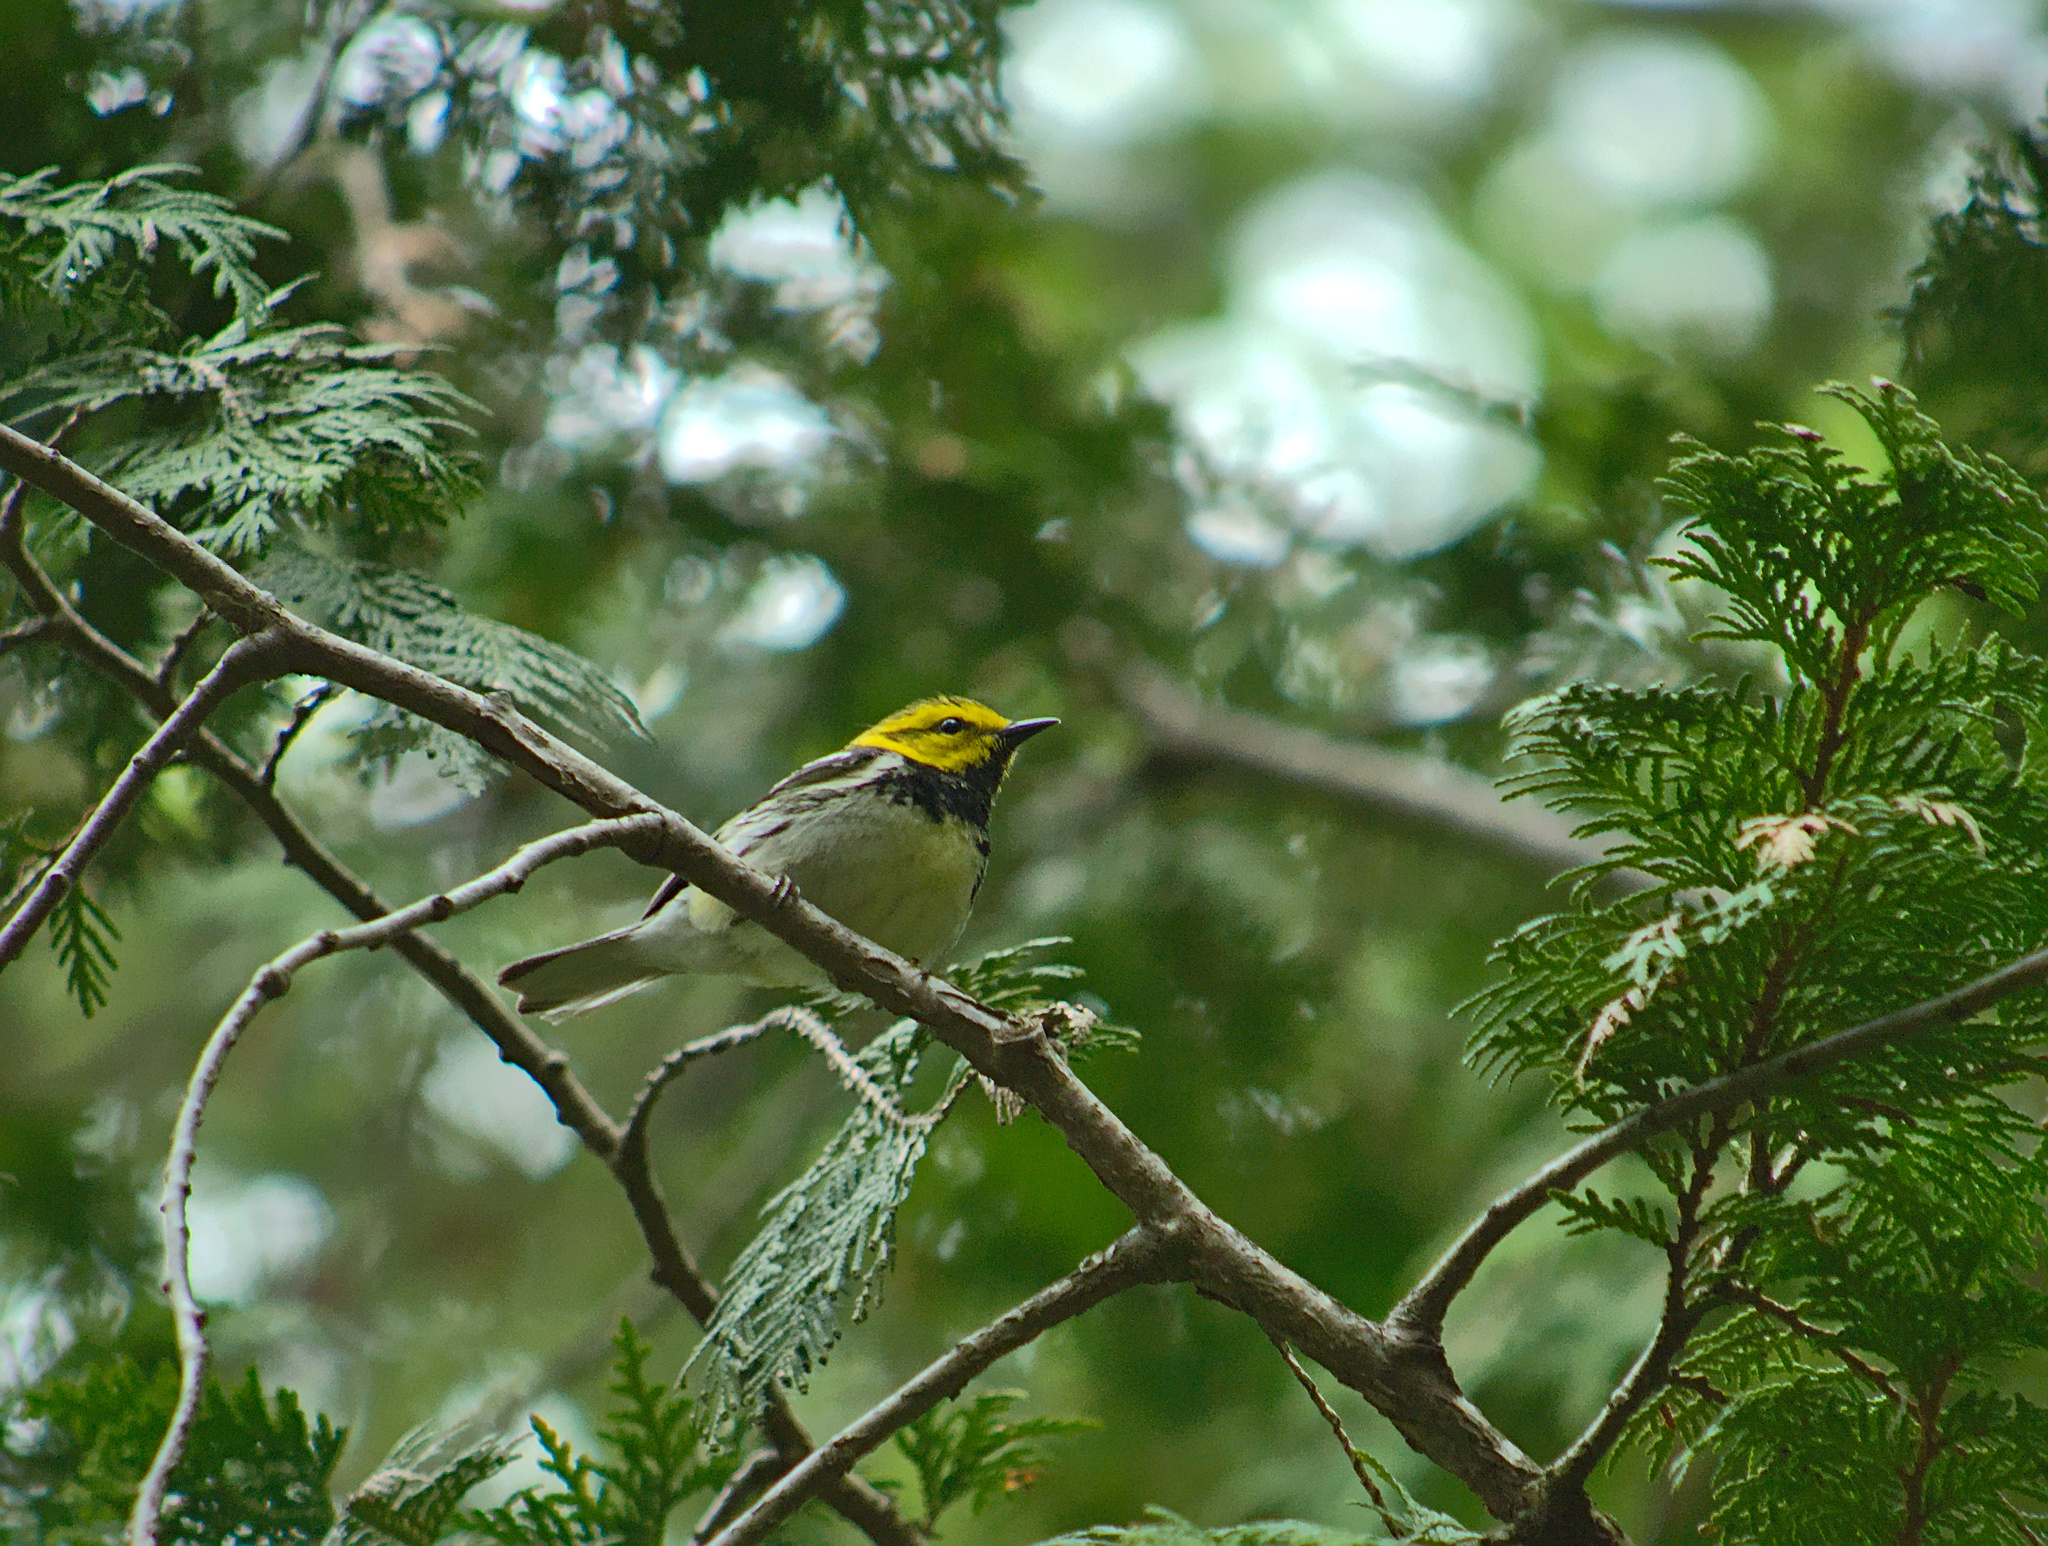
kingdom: Animalia
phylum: Chordata
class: Aves
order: Passeriformes
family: Parulidae
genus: Setophaga
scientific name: Setophaga virens
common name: Black-throated green warbler
